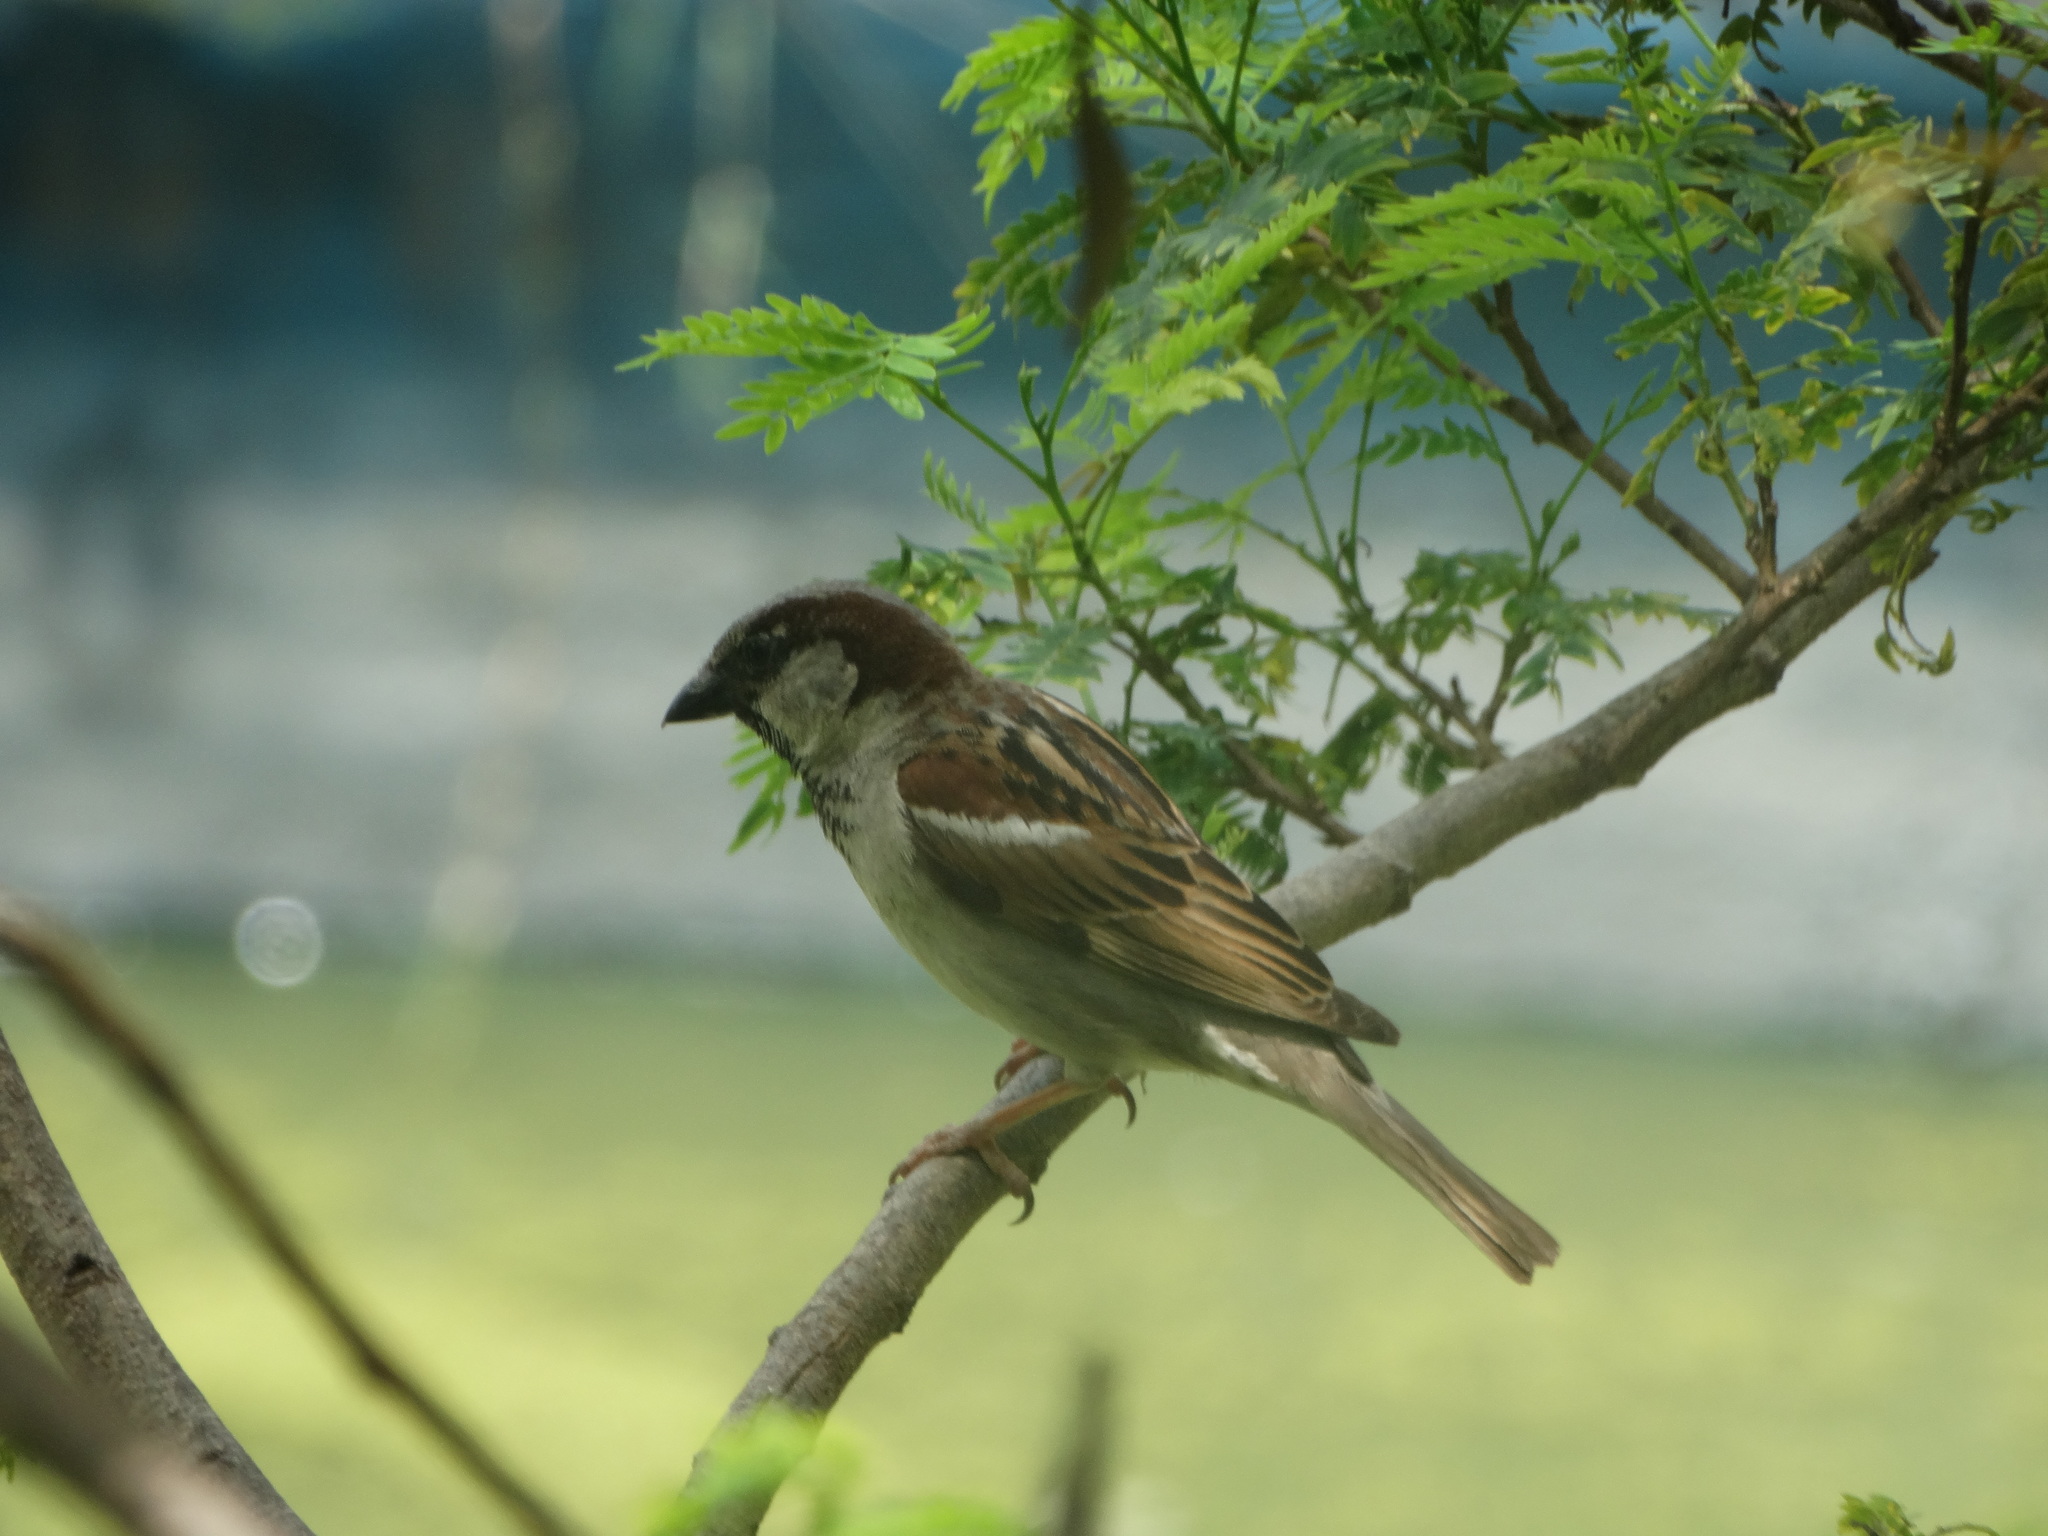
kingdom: Animalia
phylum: Chordata
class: Aves
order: Passeriformes
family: Passeridae
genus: Passer
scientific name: Passer domesticus
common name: House sparrow
